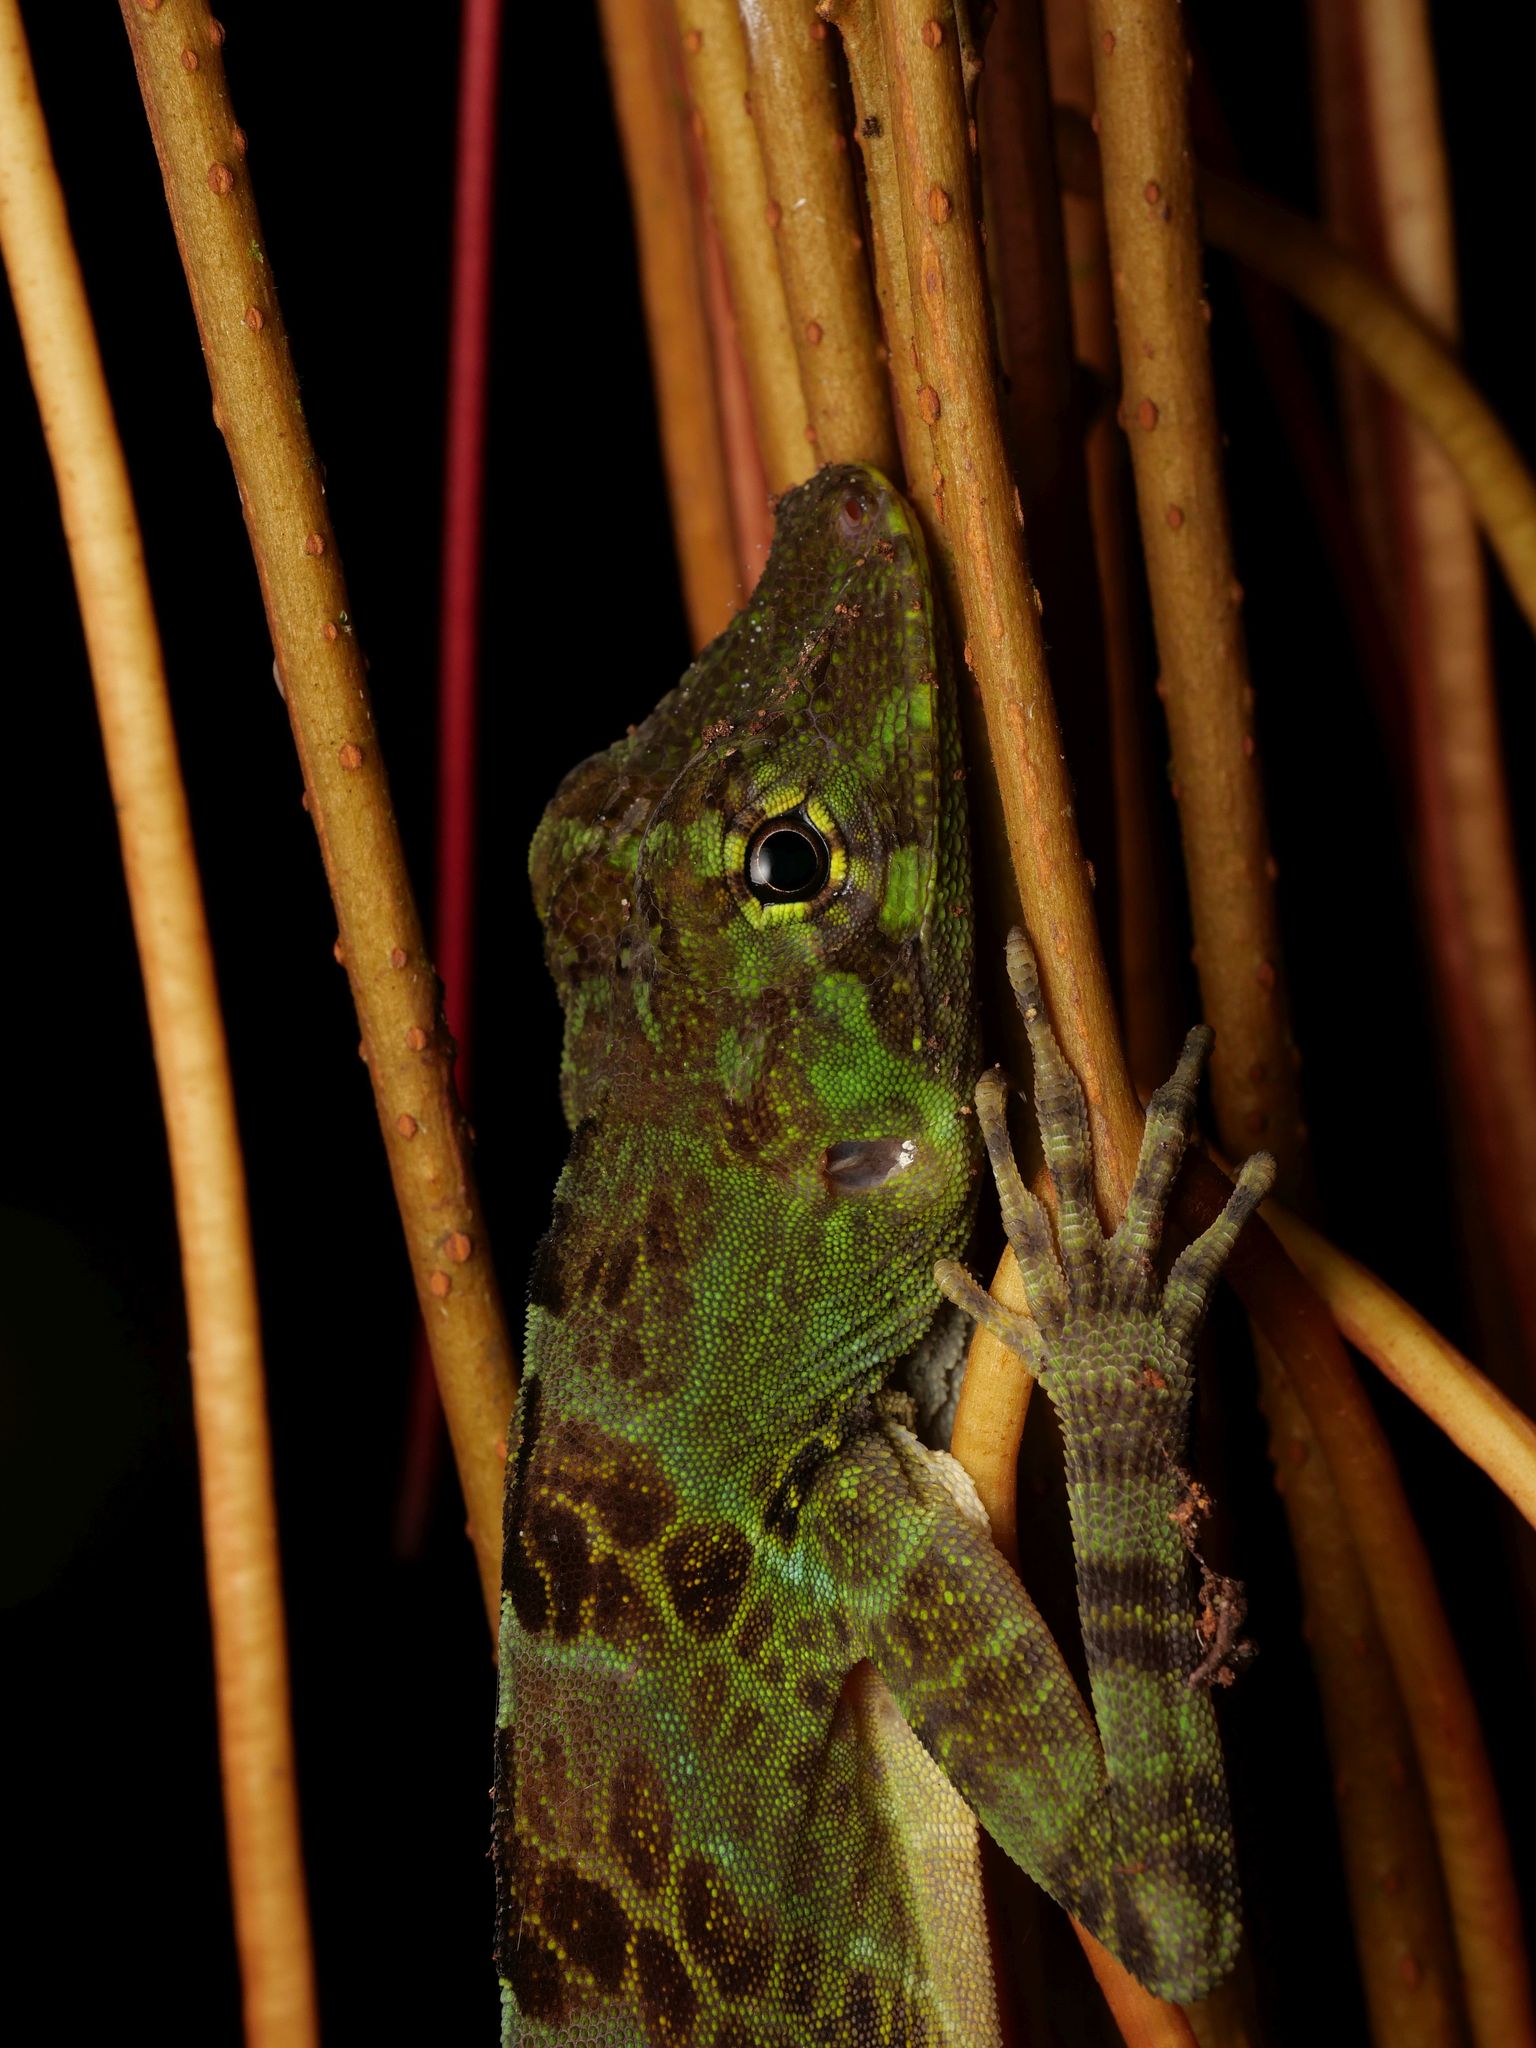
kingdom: Animalia
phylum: Chordata
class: Squamata
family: Dactyloidae
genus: Anolis
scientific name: Anolis princeps
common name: First anole
